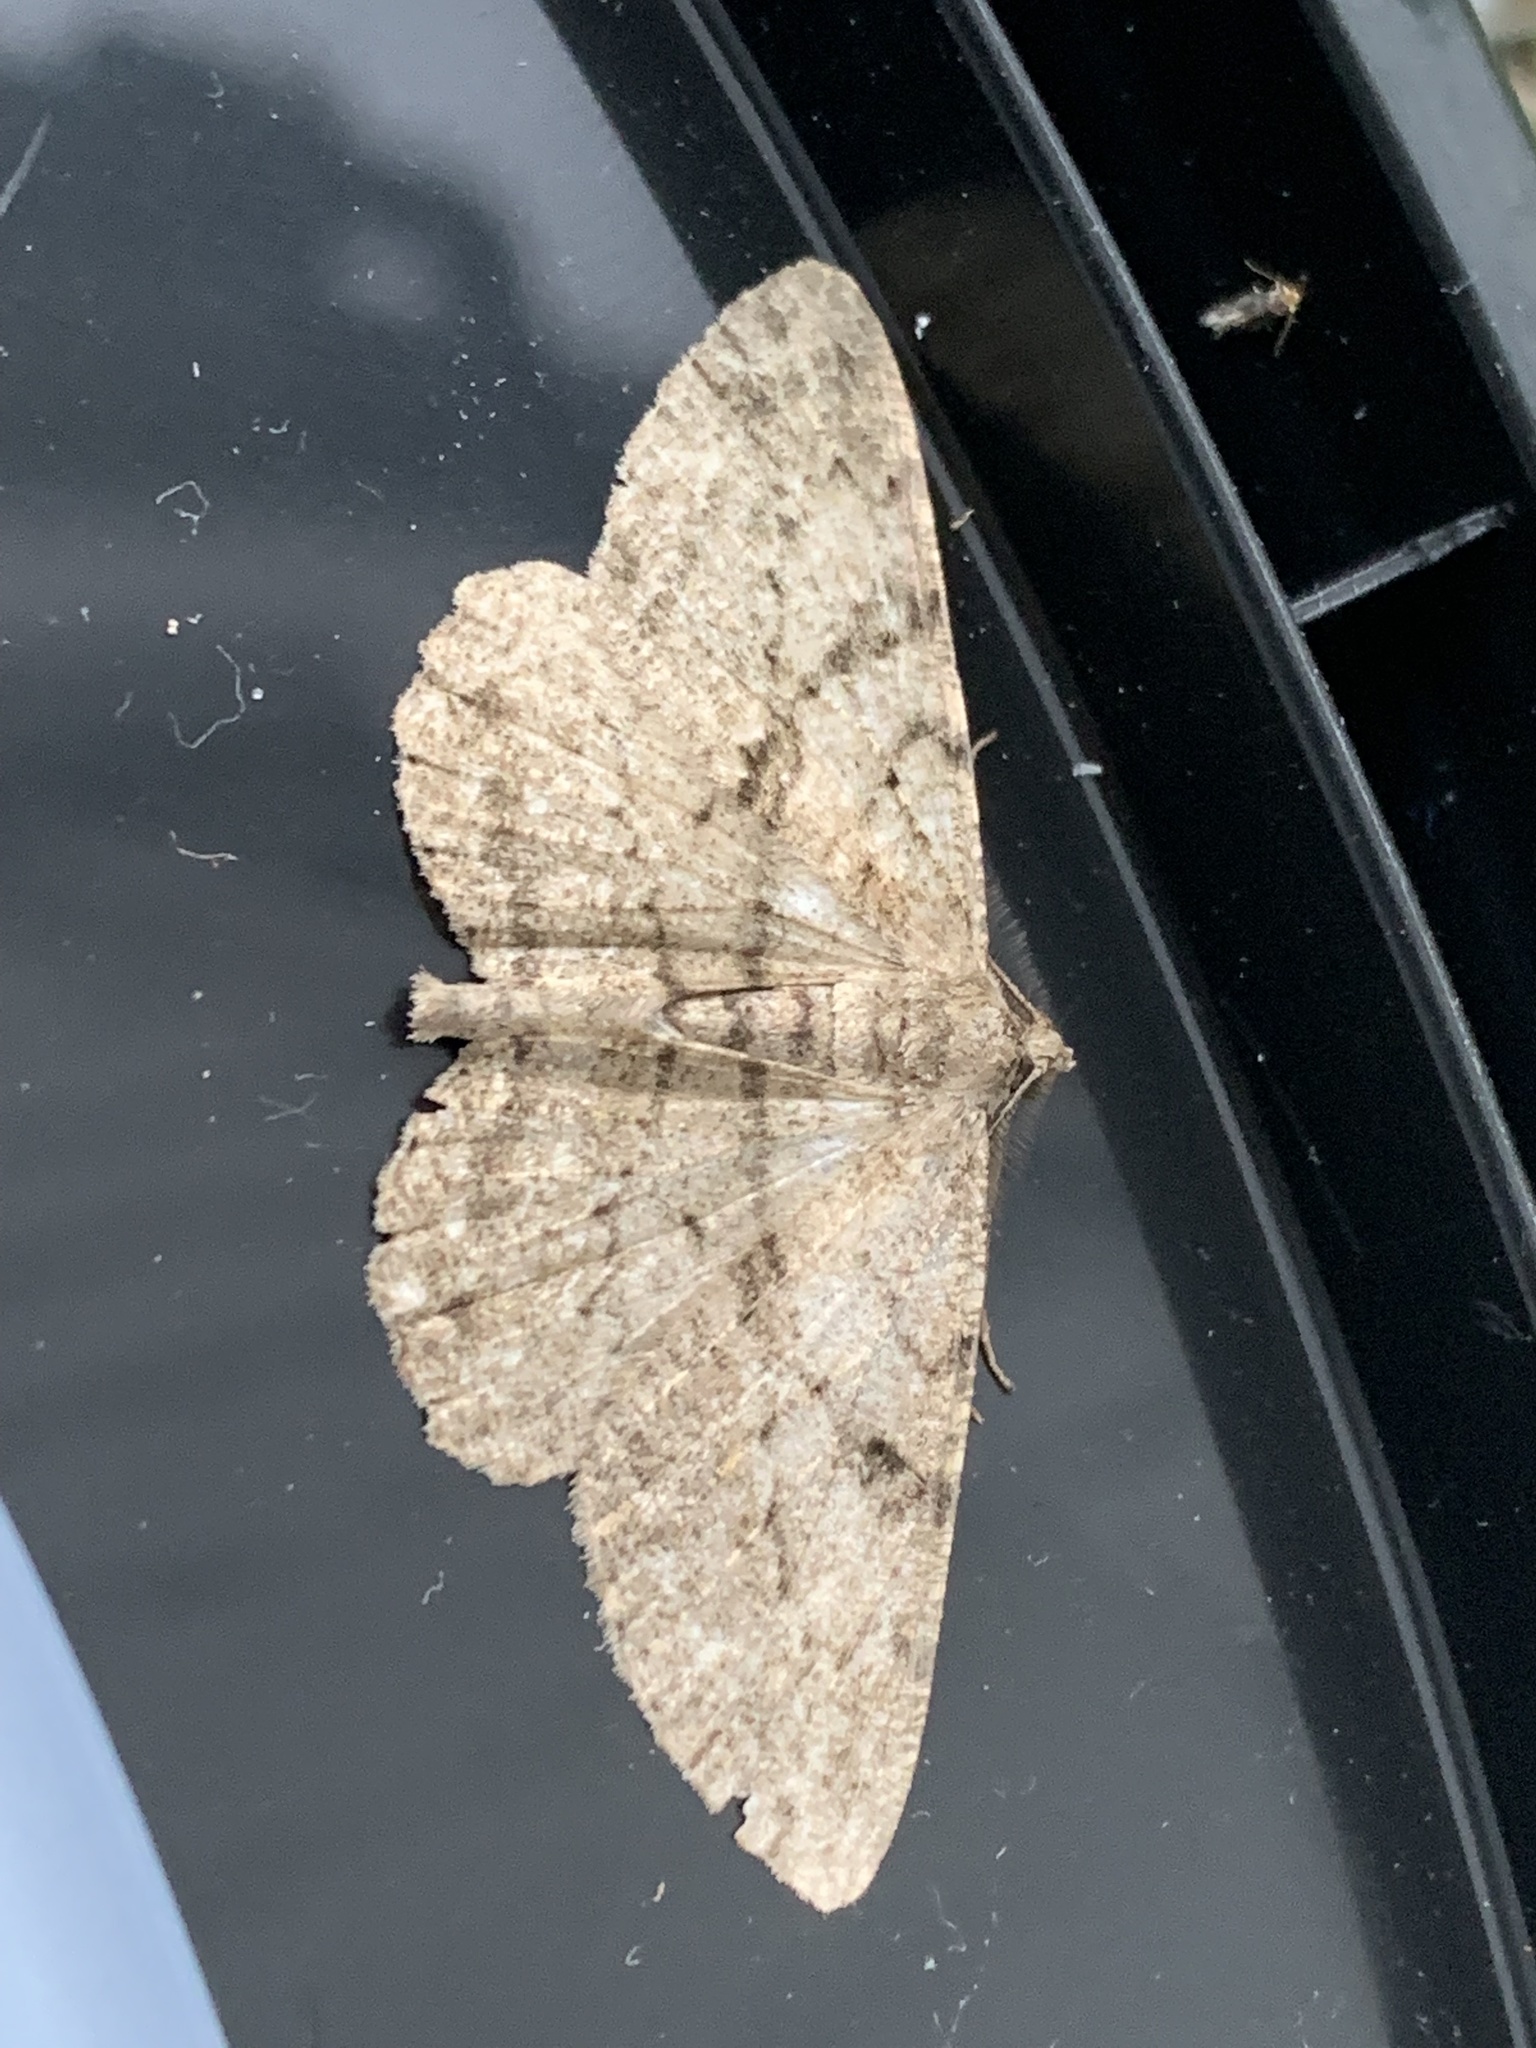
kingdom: Animalia
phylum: Arthropoda
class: Insecta
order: Lepidoptera
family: Geometridae
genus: Peribatodes
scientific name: Peribatodes rhomboidaria
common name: Willow beauty
